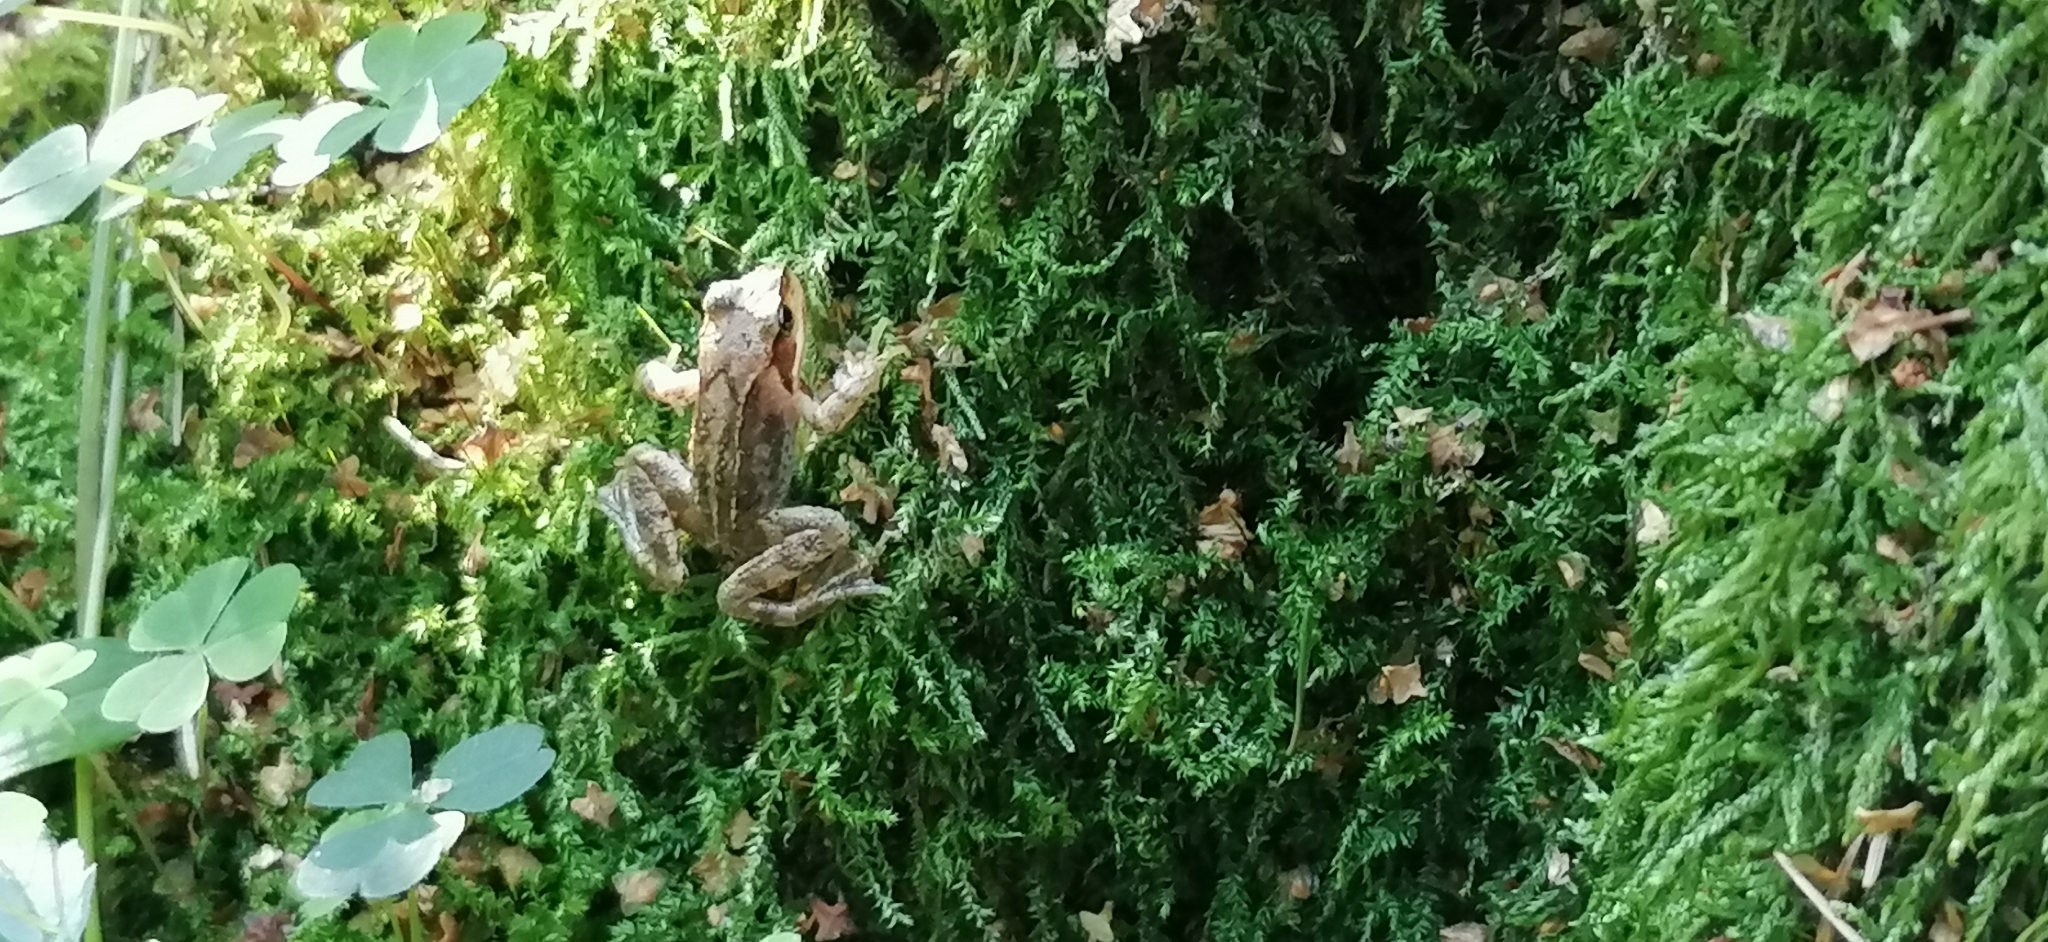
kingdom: Animalia
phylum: Chordata
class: Amphibia
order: Anura
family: Ranidae
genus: Rana
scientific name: Rana temporaria
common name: Common frog
